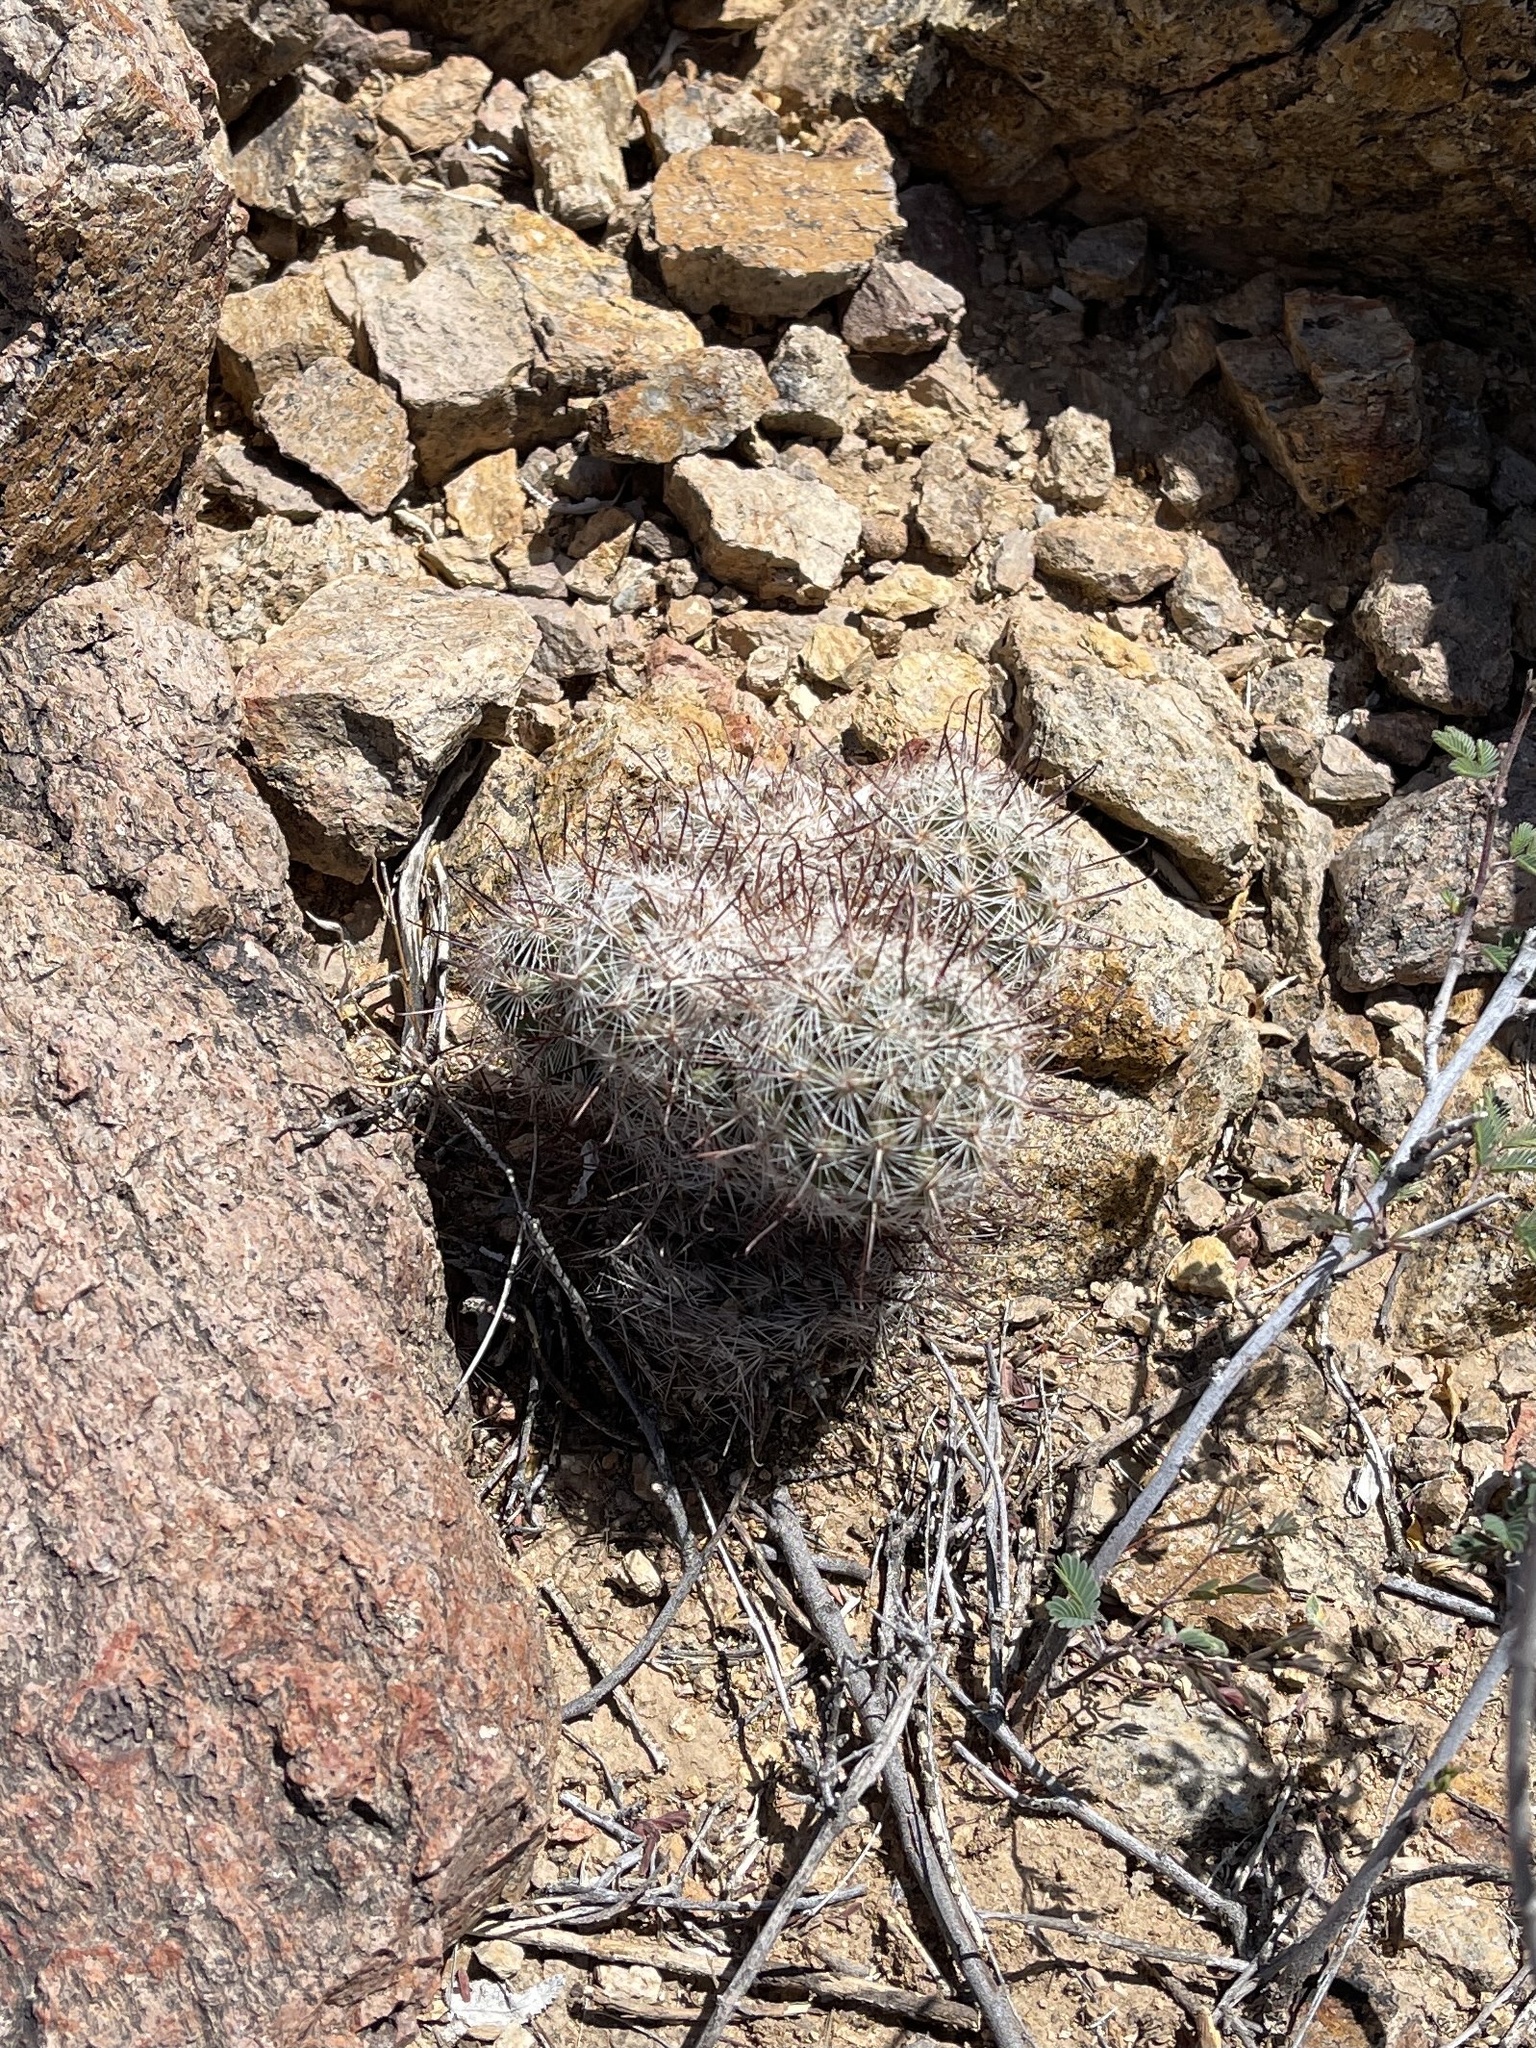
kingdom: Plantae
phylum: Tracheophyta
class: Magnoliopsida
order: Caryophyllales
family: Cactaceae
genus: Cochemiea
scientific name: Cochemiea grahamii
